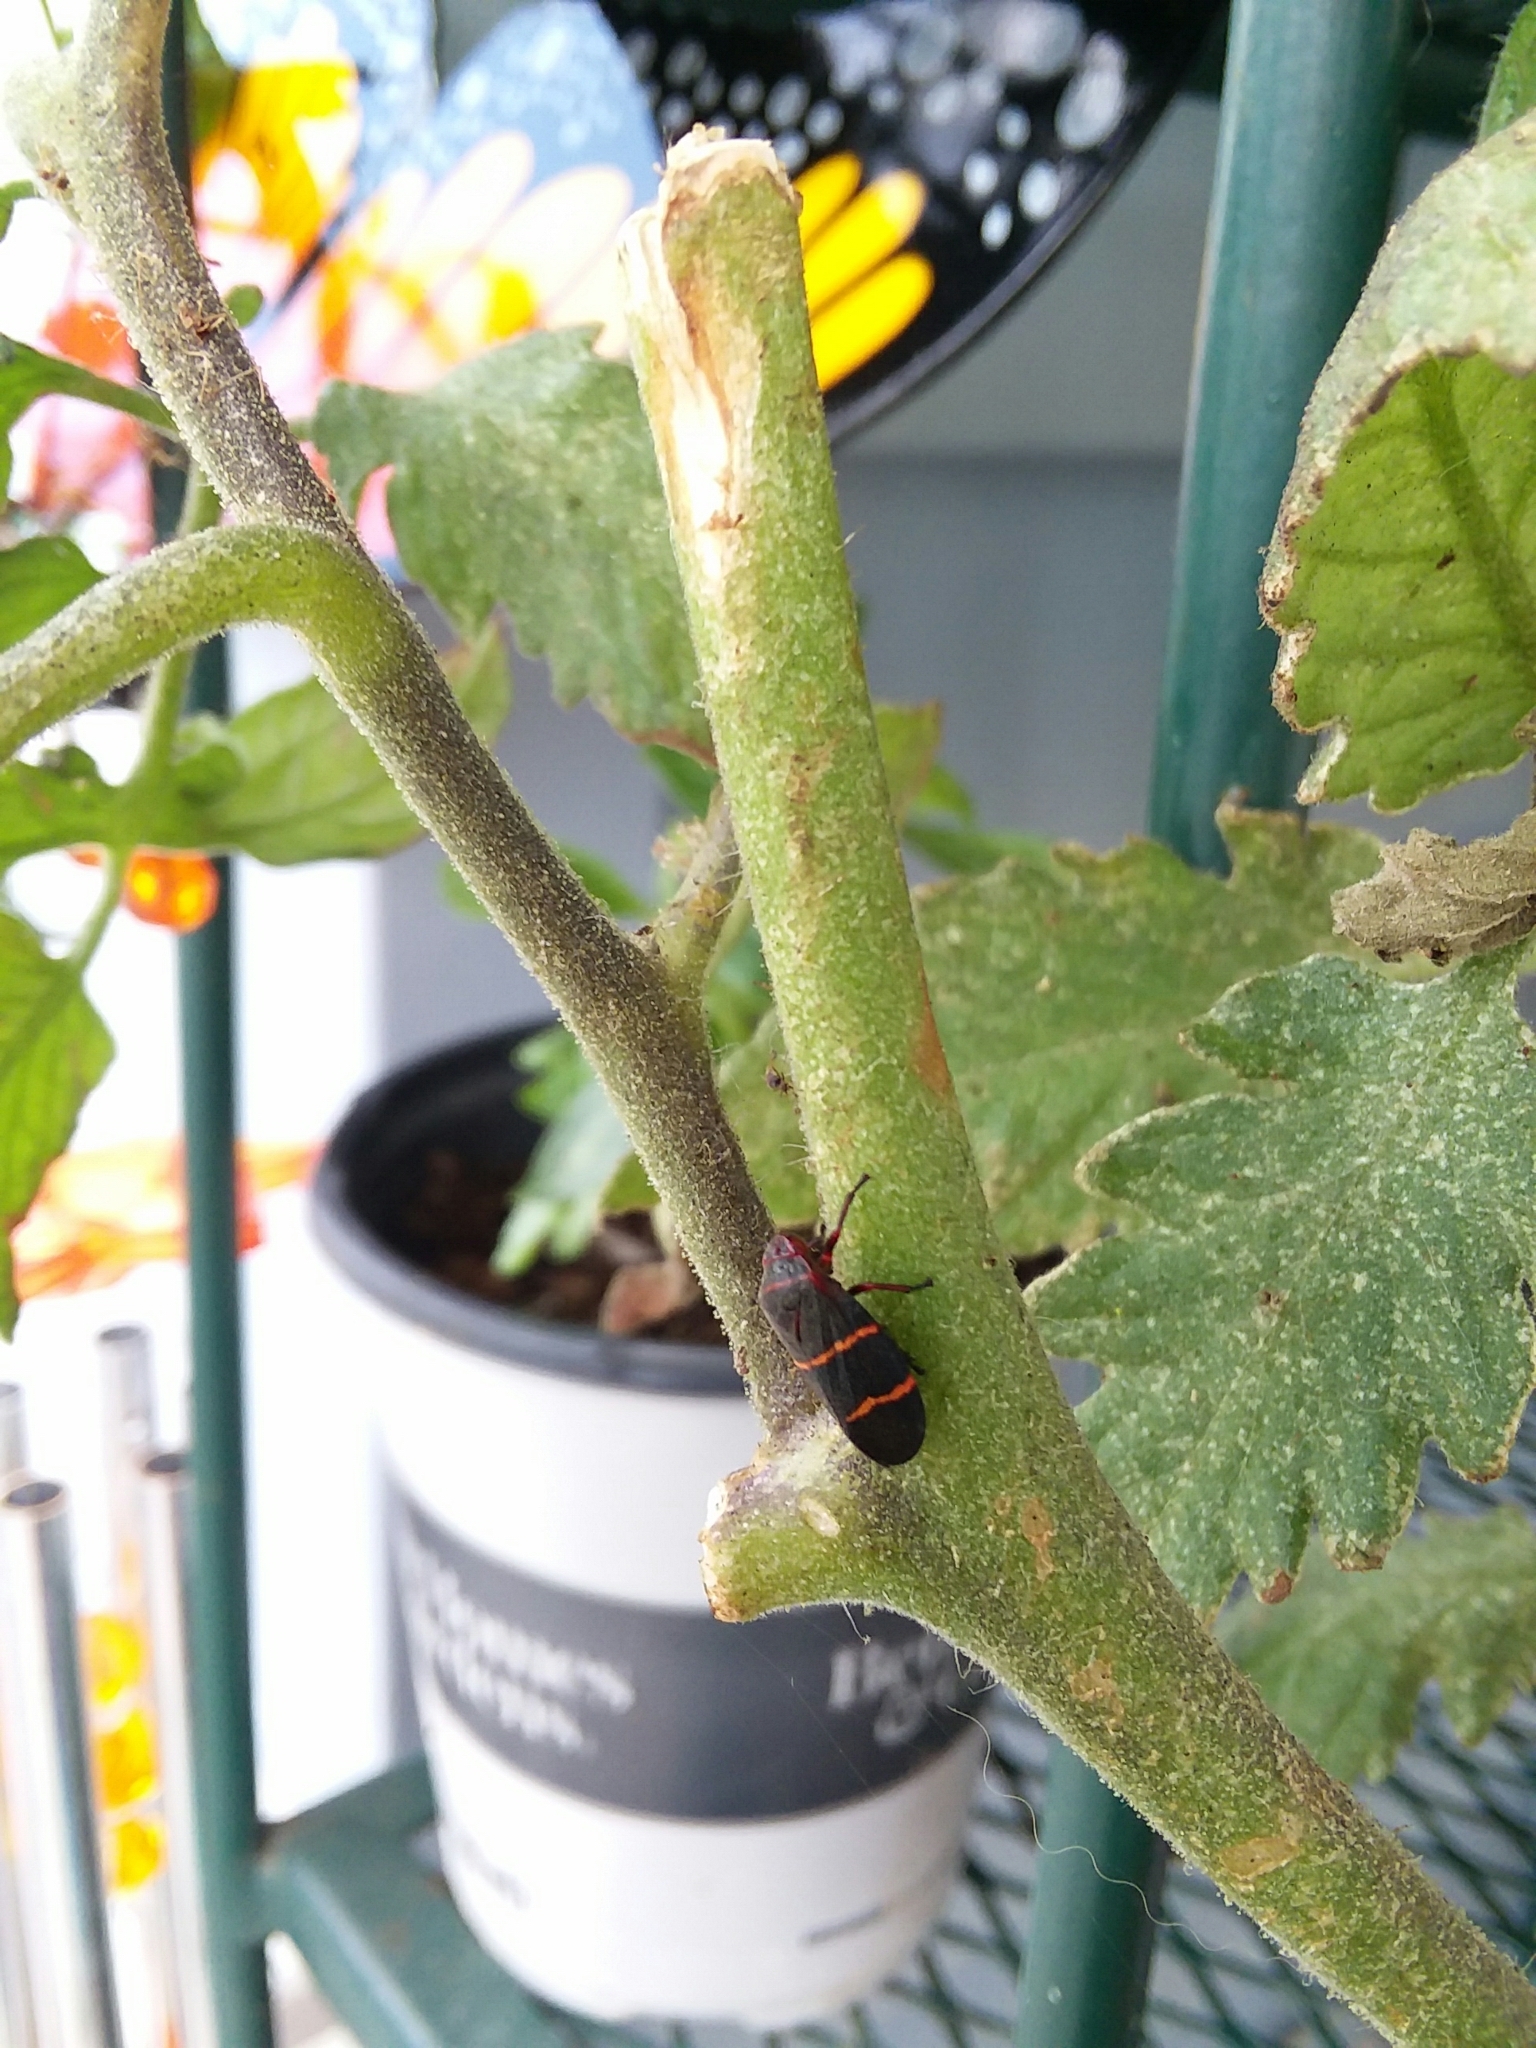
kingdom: Animalia
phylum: Arthropoda
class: Insecta
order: Hemiptera
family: Cercopidae
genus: Prosapia
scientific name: Prosapia bicincta
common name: Twolined spittlebug
